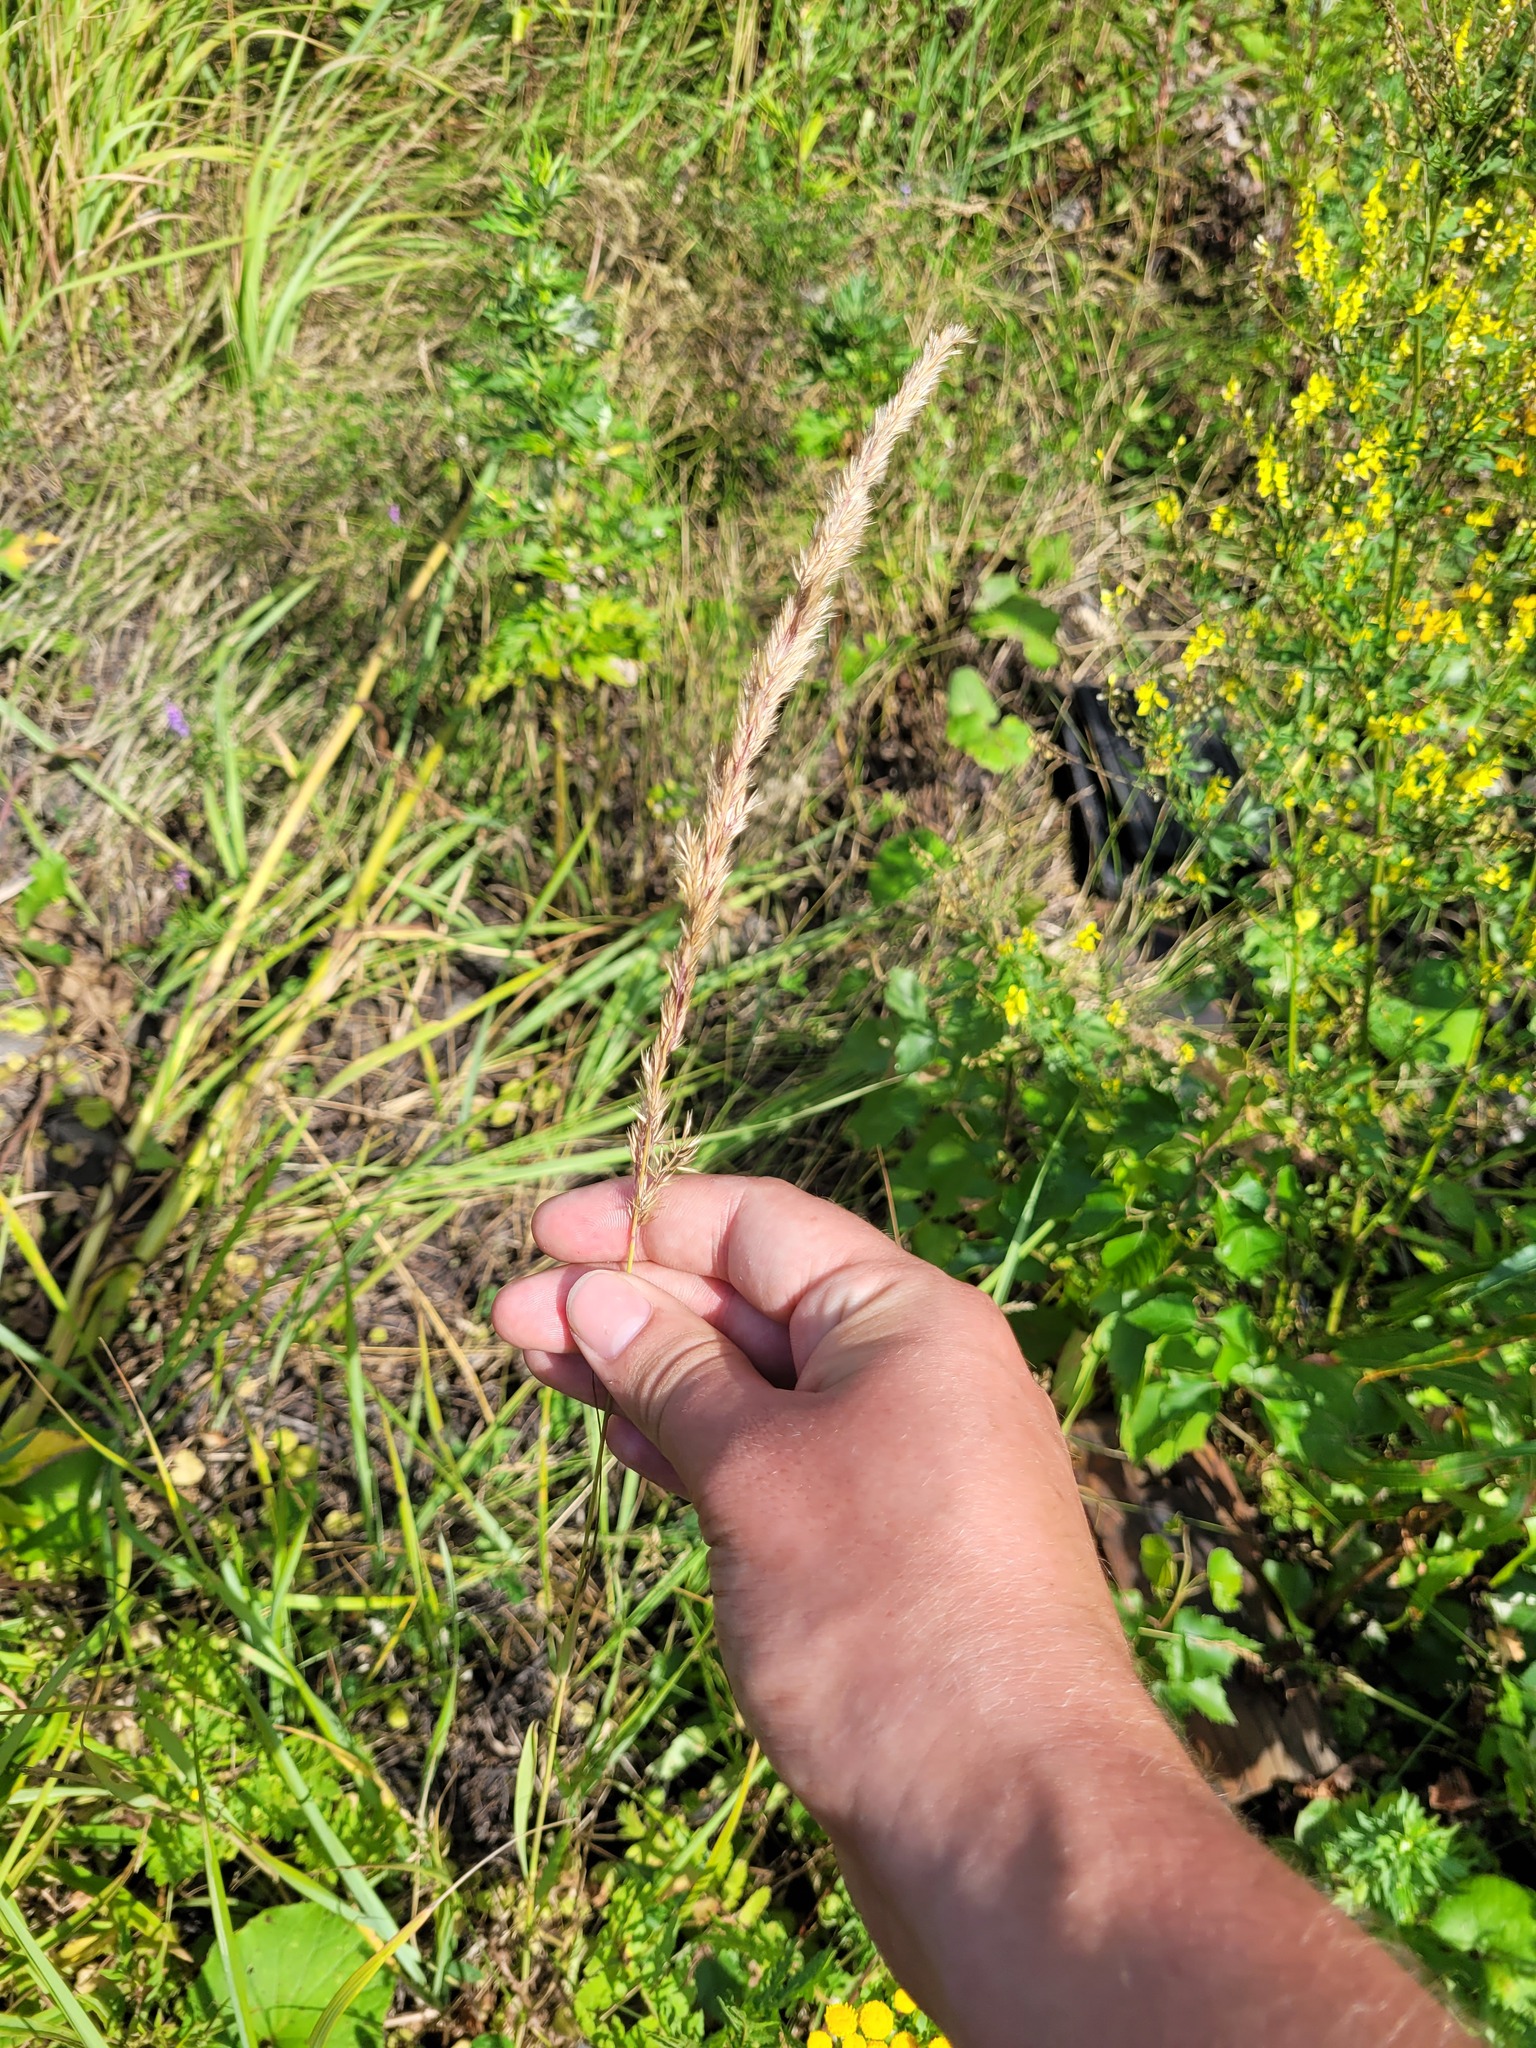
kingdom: Plantae
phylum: Tracheophyta
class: Liliopsida
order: Poales
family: Poaceae
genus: Calamagrostis
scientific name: Calamagrostis epigejos
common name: Wood small-reed
